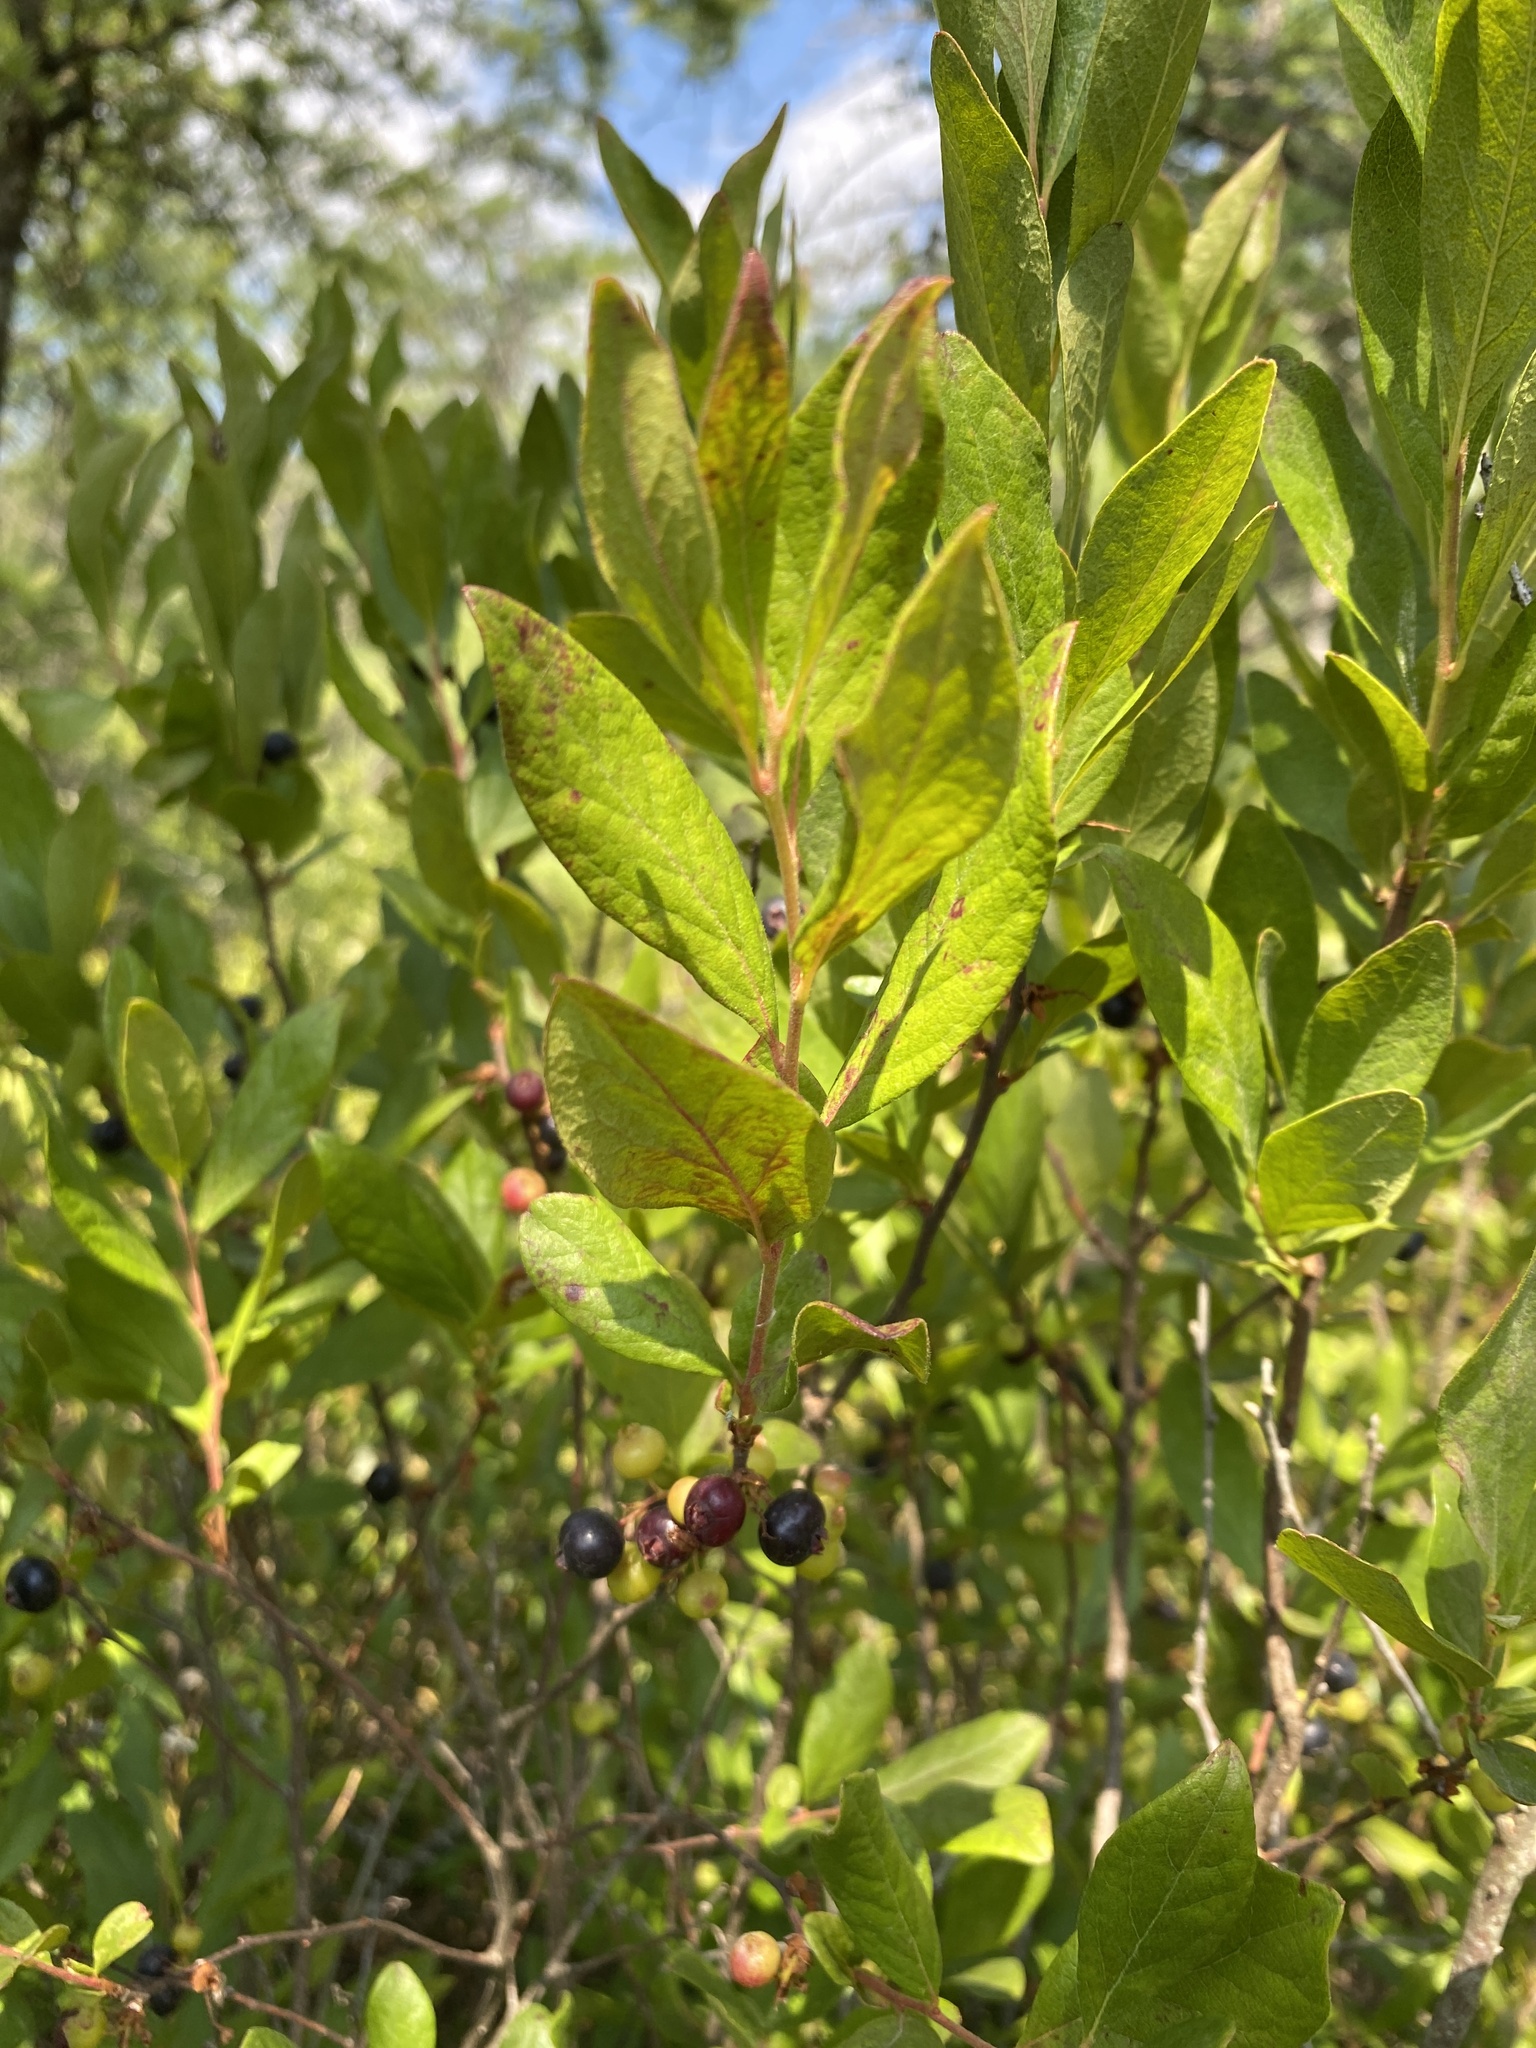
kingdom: Plantae
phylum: Tracheophyta
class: Magnoliopsida
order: Ericales
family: Ericaceae
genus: Gaylussacia
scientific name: Gaylussacia baccata
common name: Black huckleberry
